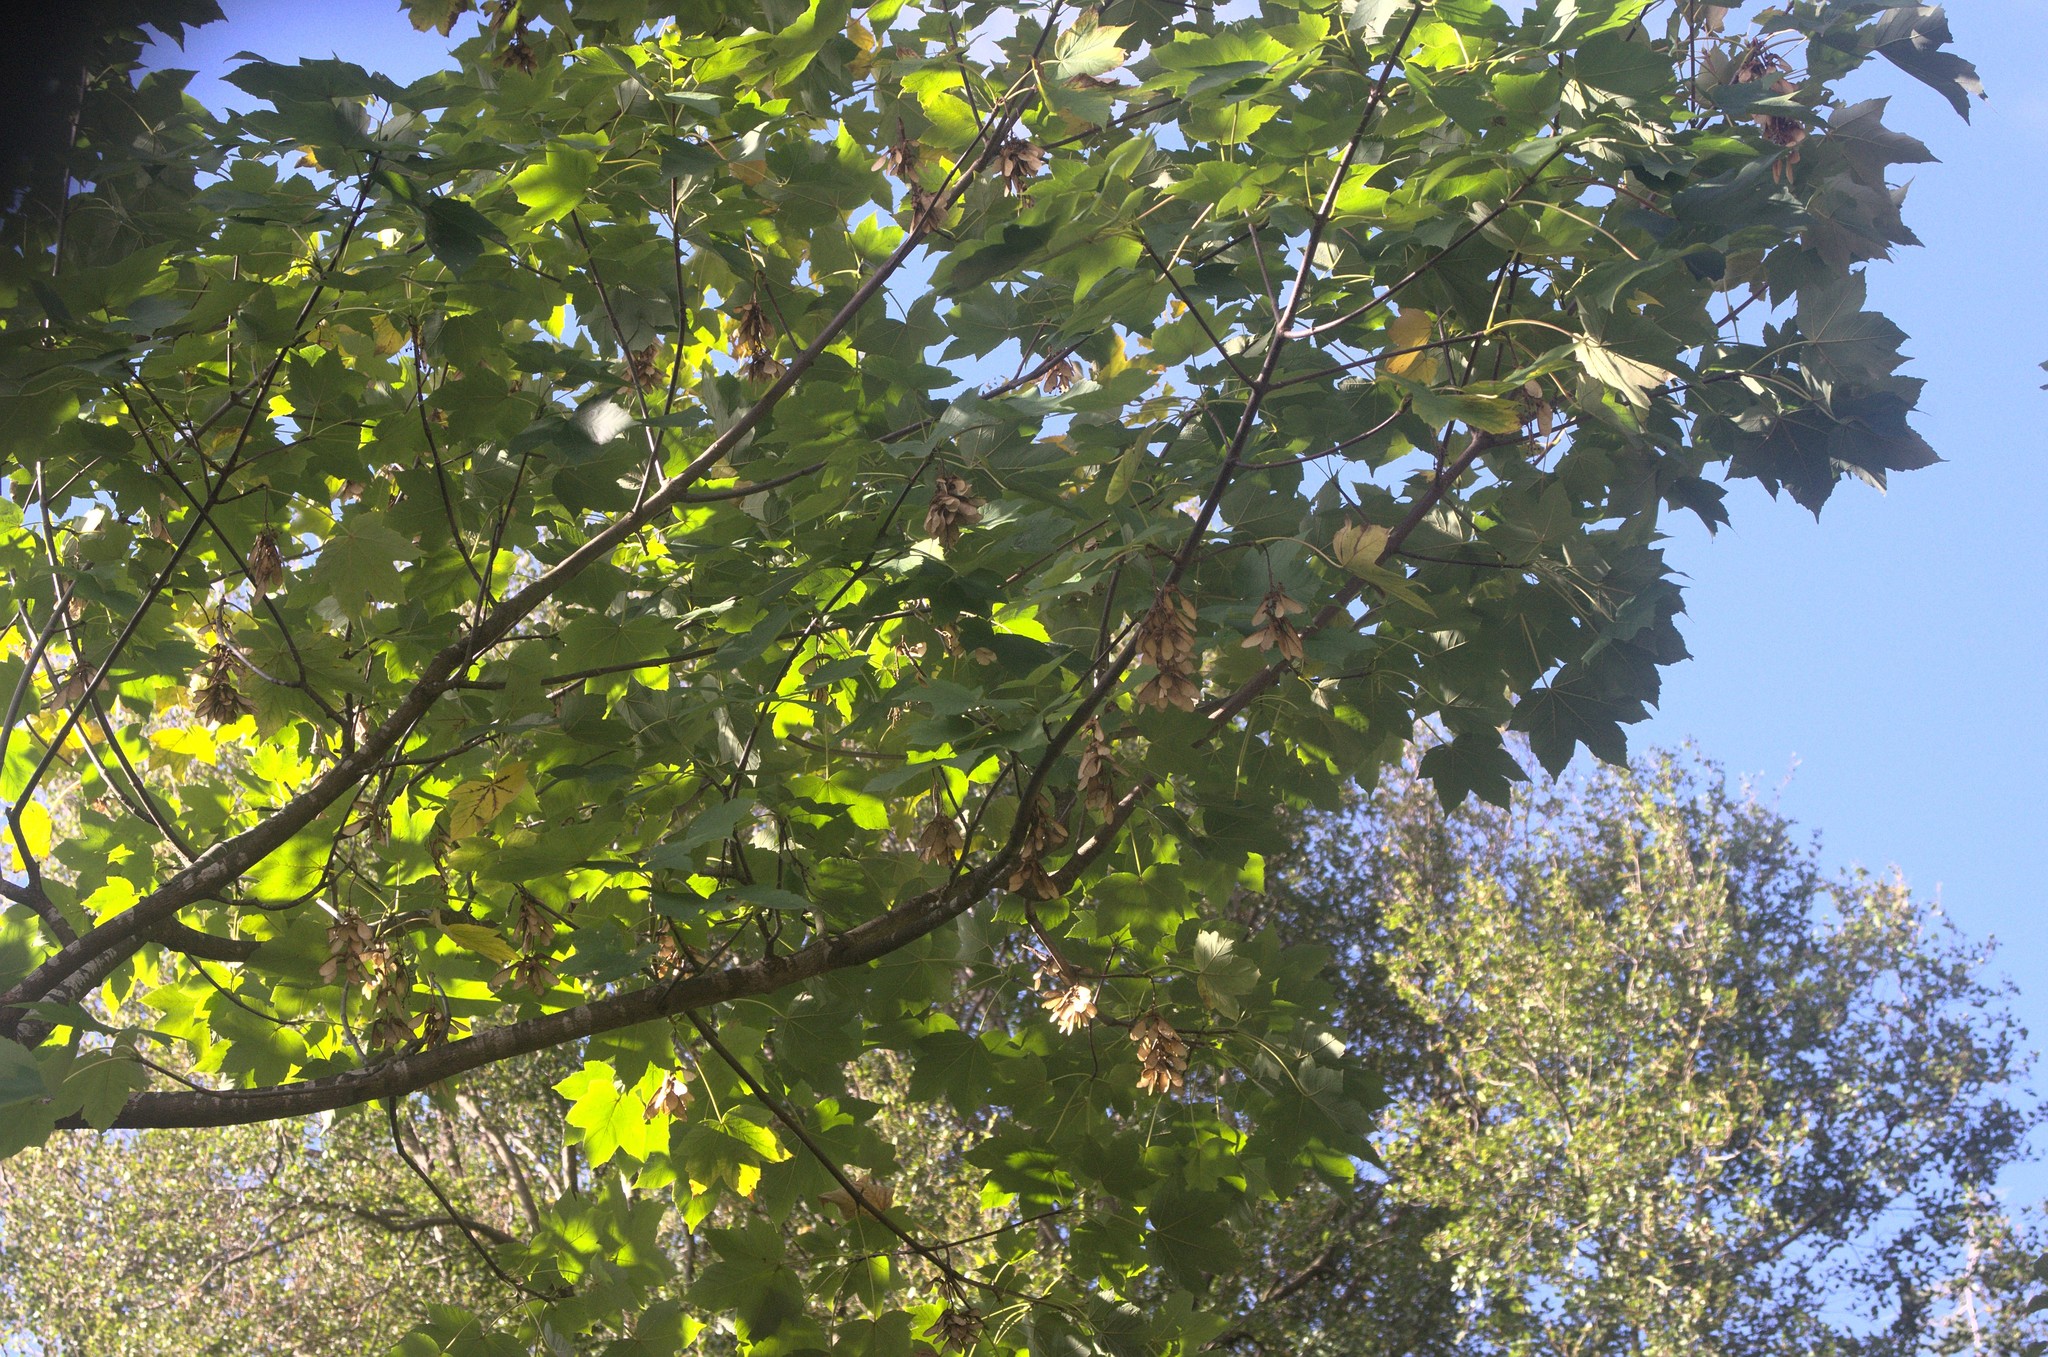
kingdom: Plantae
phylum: Tracheophyta
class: Magnoliopsida
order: Sapindales
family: Sapindaceae
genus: Acer
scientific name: Acer pseudoplatanus
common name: Sycamore
